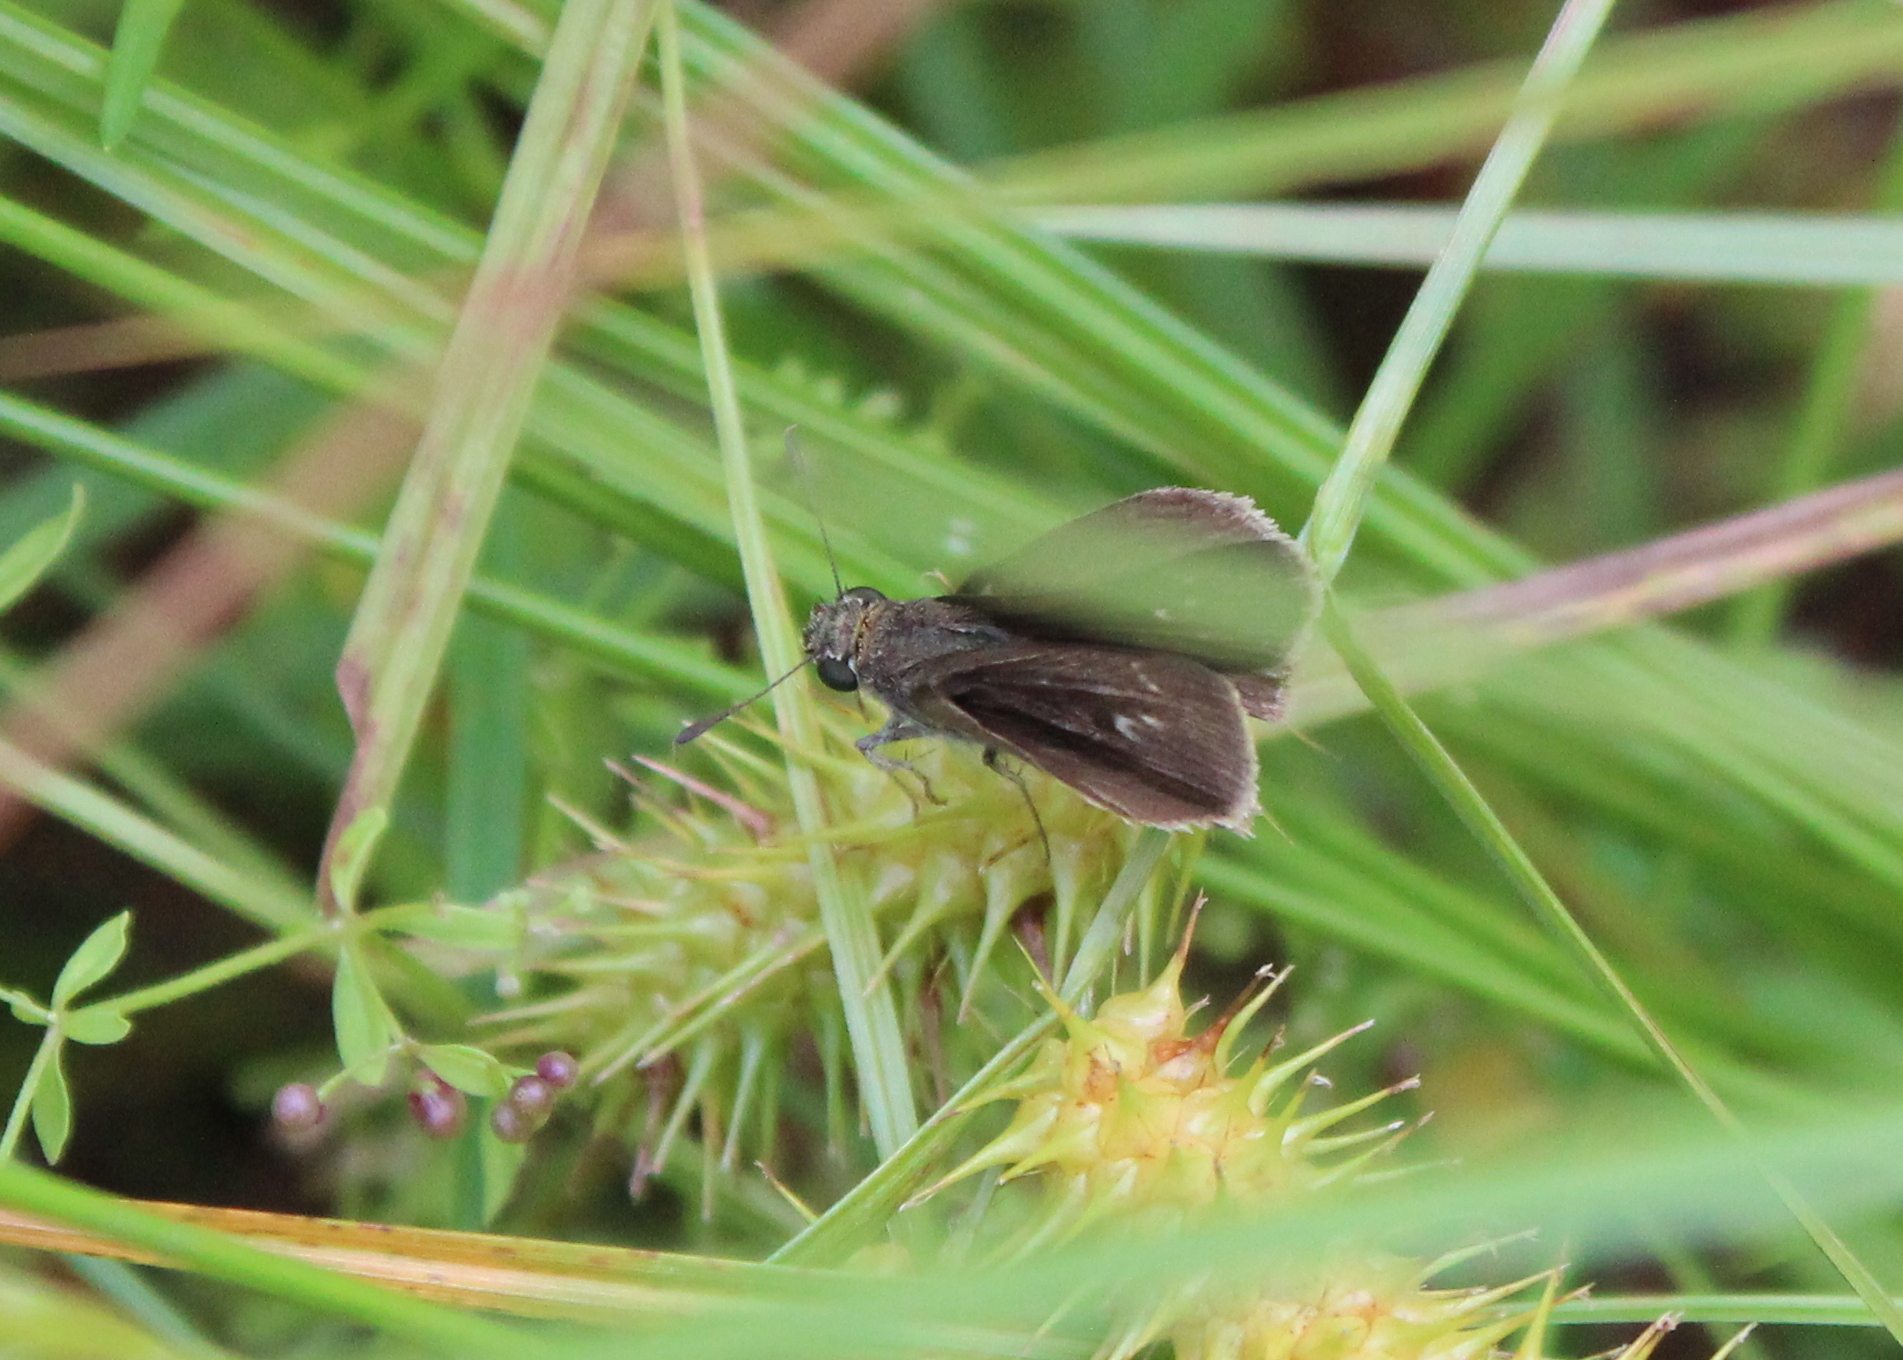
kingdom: Animalia
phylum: Arthropoda
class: Insecta
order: Lepidoptera
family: Hesperiidae
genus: Euphyes
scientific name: Euphyes vestris
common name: Dun skipper
